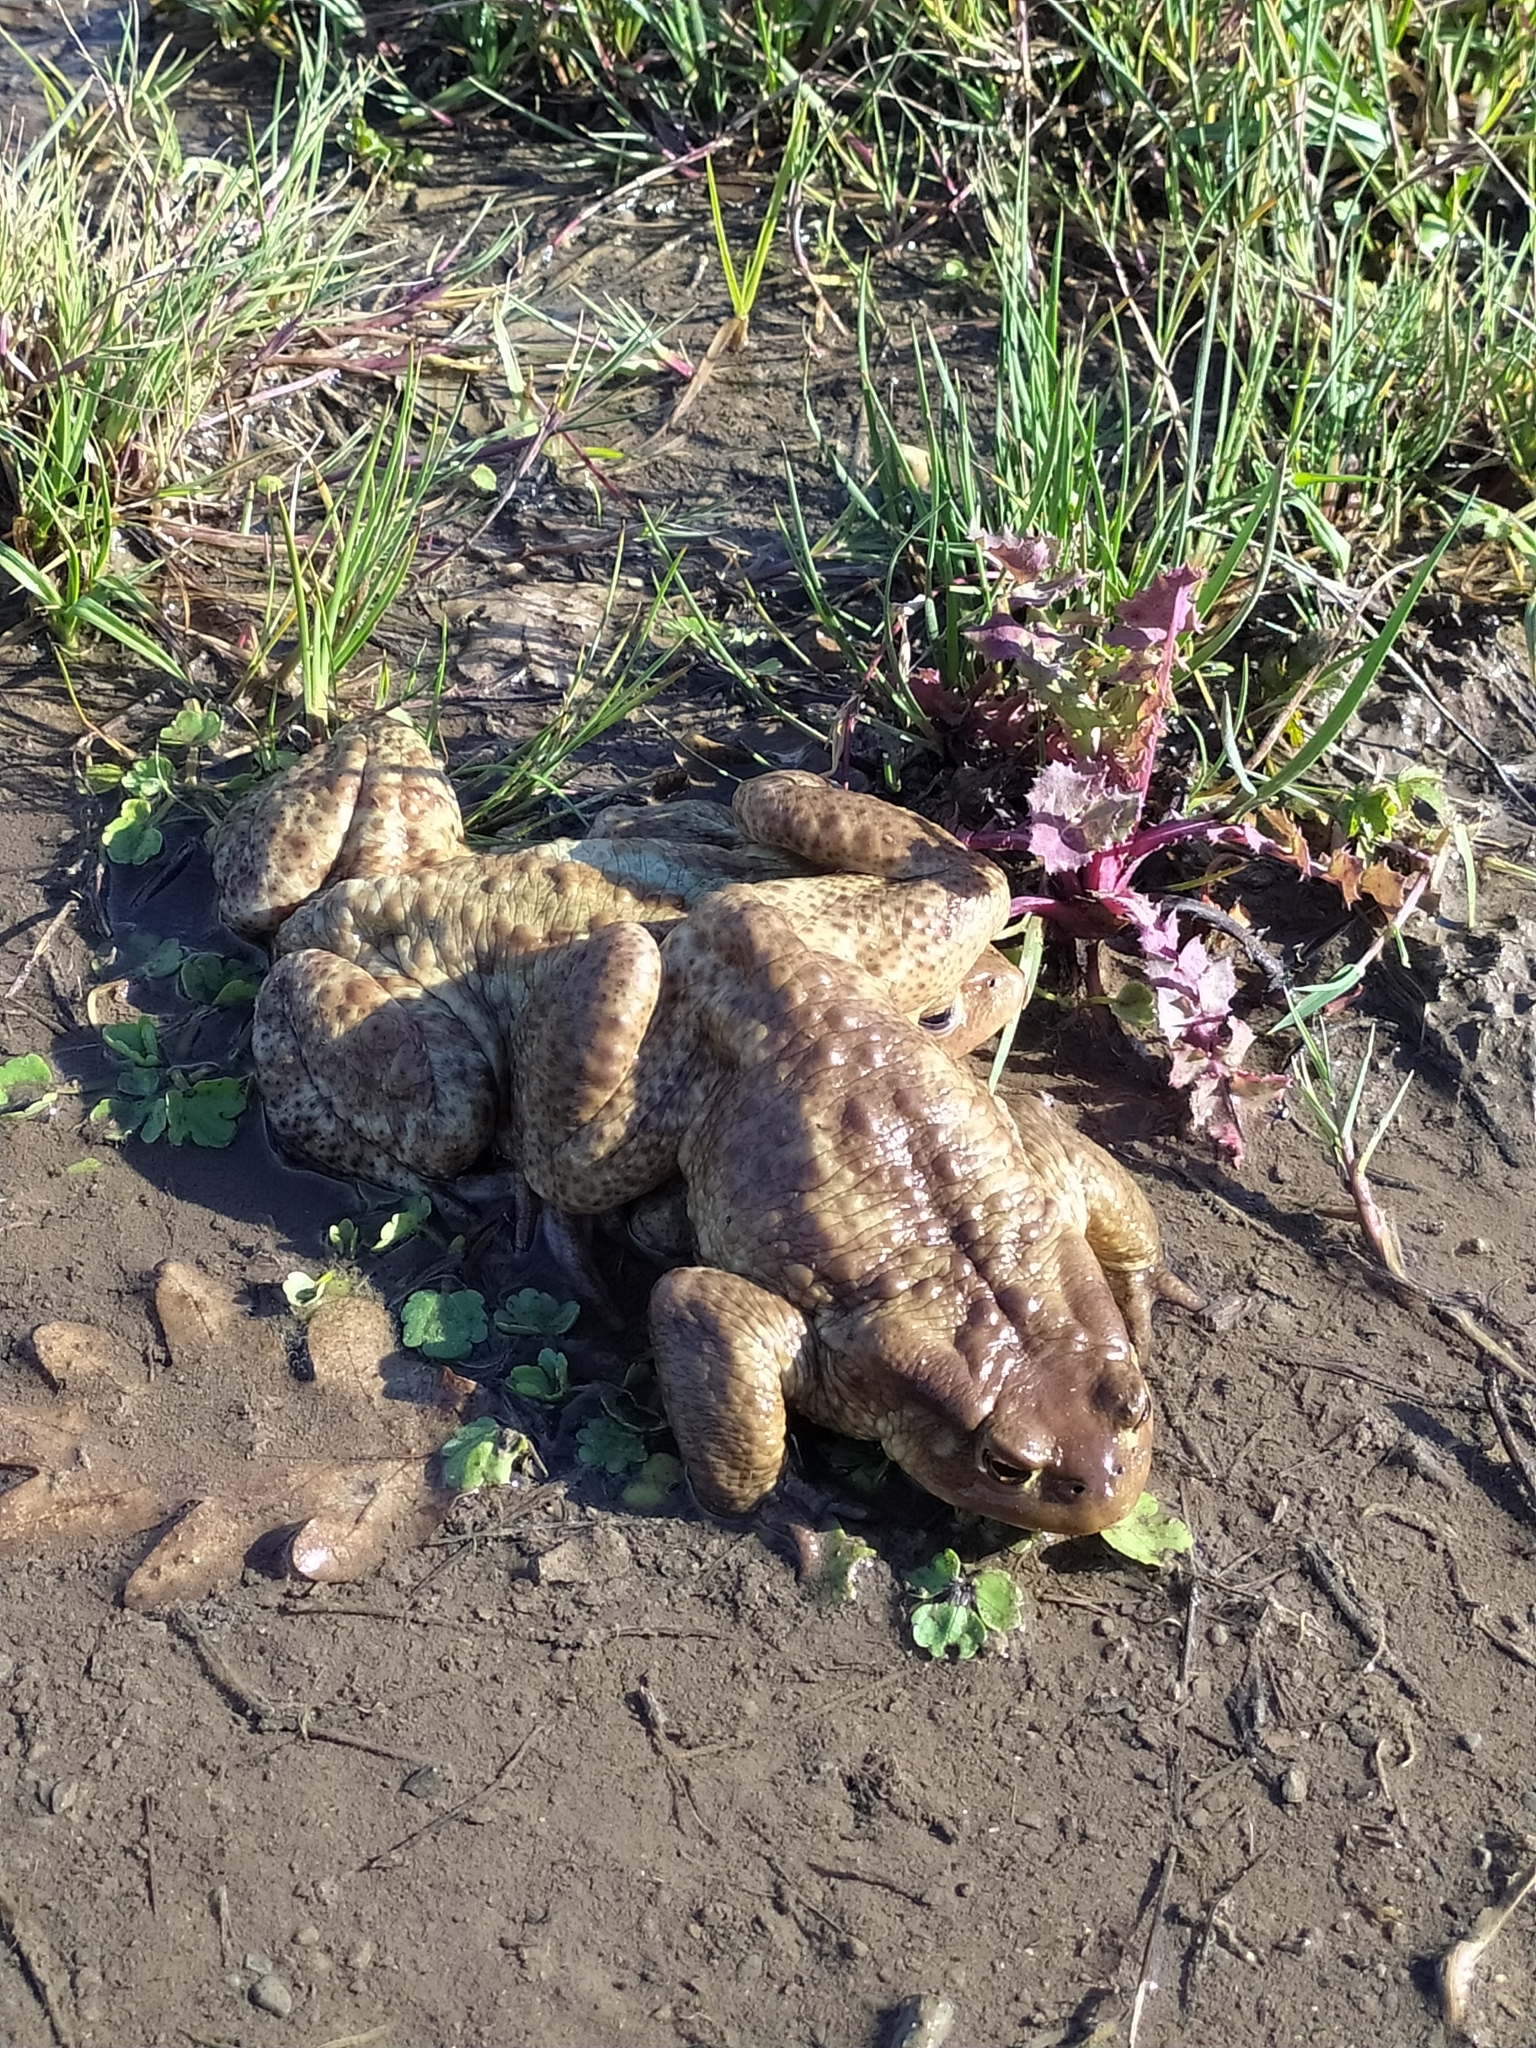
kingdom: Animalia
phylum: Chordata
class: Amphibia
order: Anura
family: Bufonidae
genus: Bufo
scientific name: Bufo bufo
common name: Common toad
